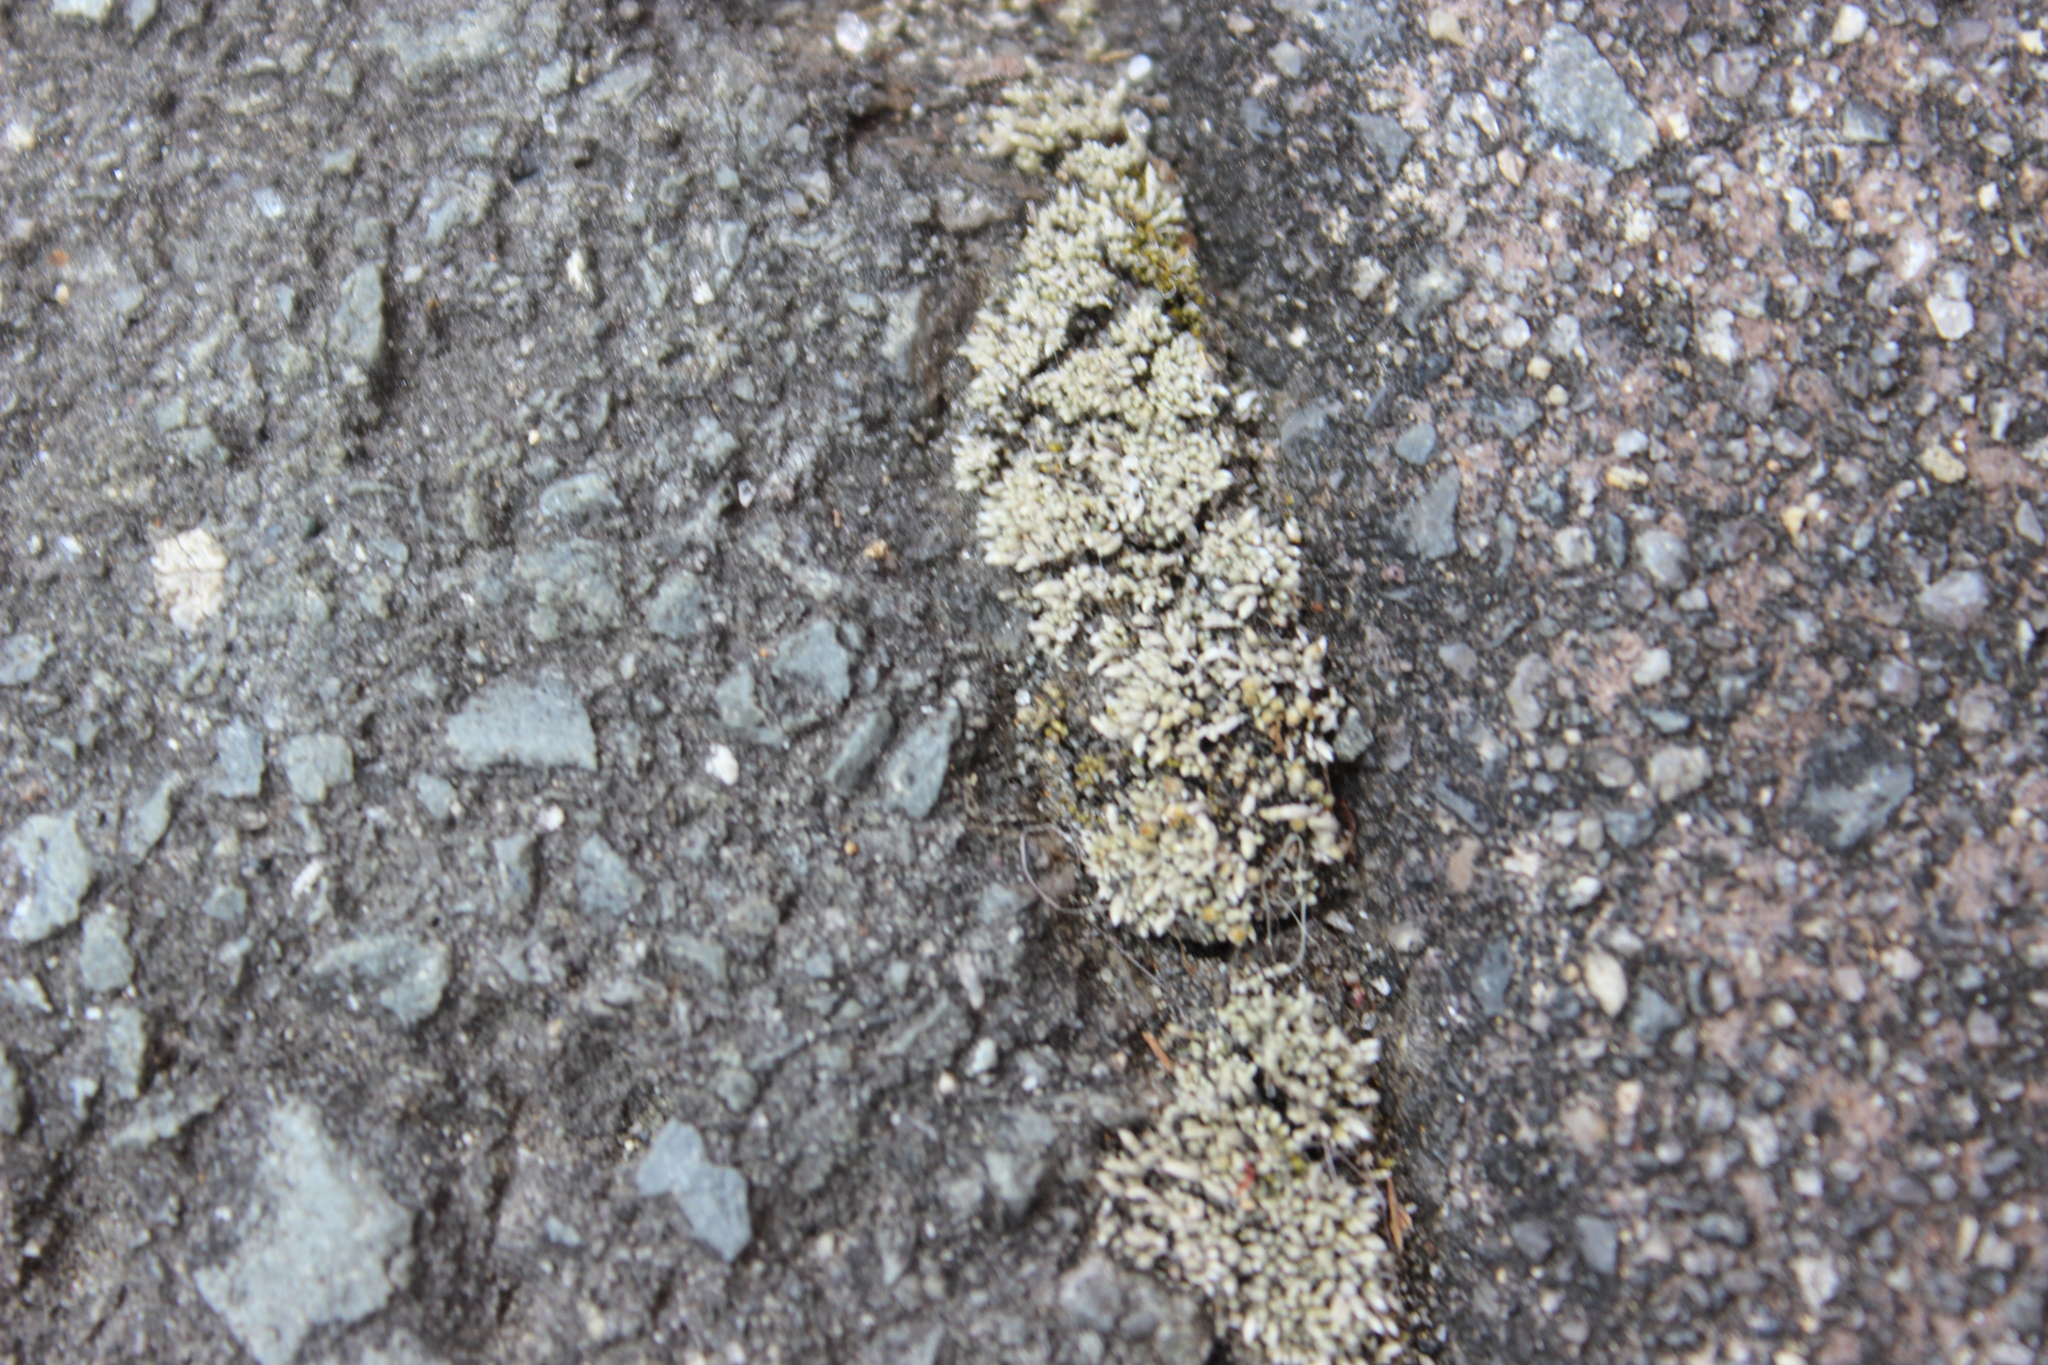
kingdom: Plantae
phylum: Bryophyta
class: Bryopsida
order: Bryales
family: Bryaceae
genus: Bryum
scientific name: Bryum argenteum
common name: Silver-moss
